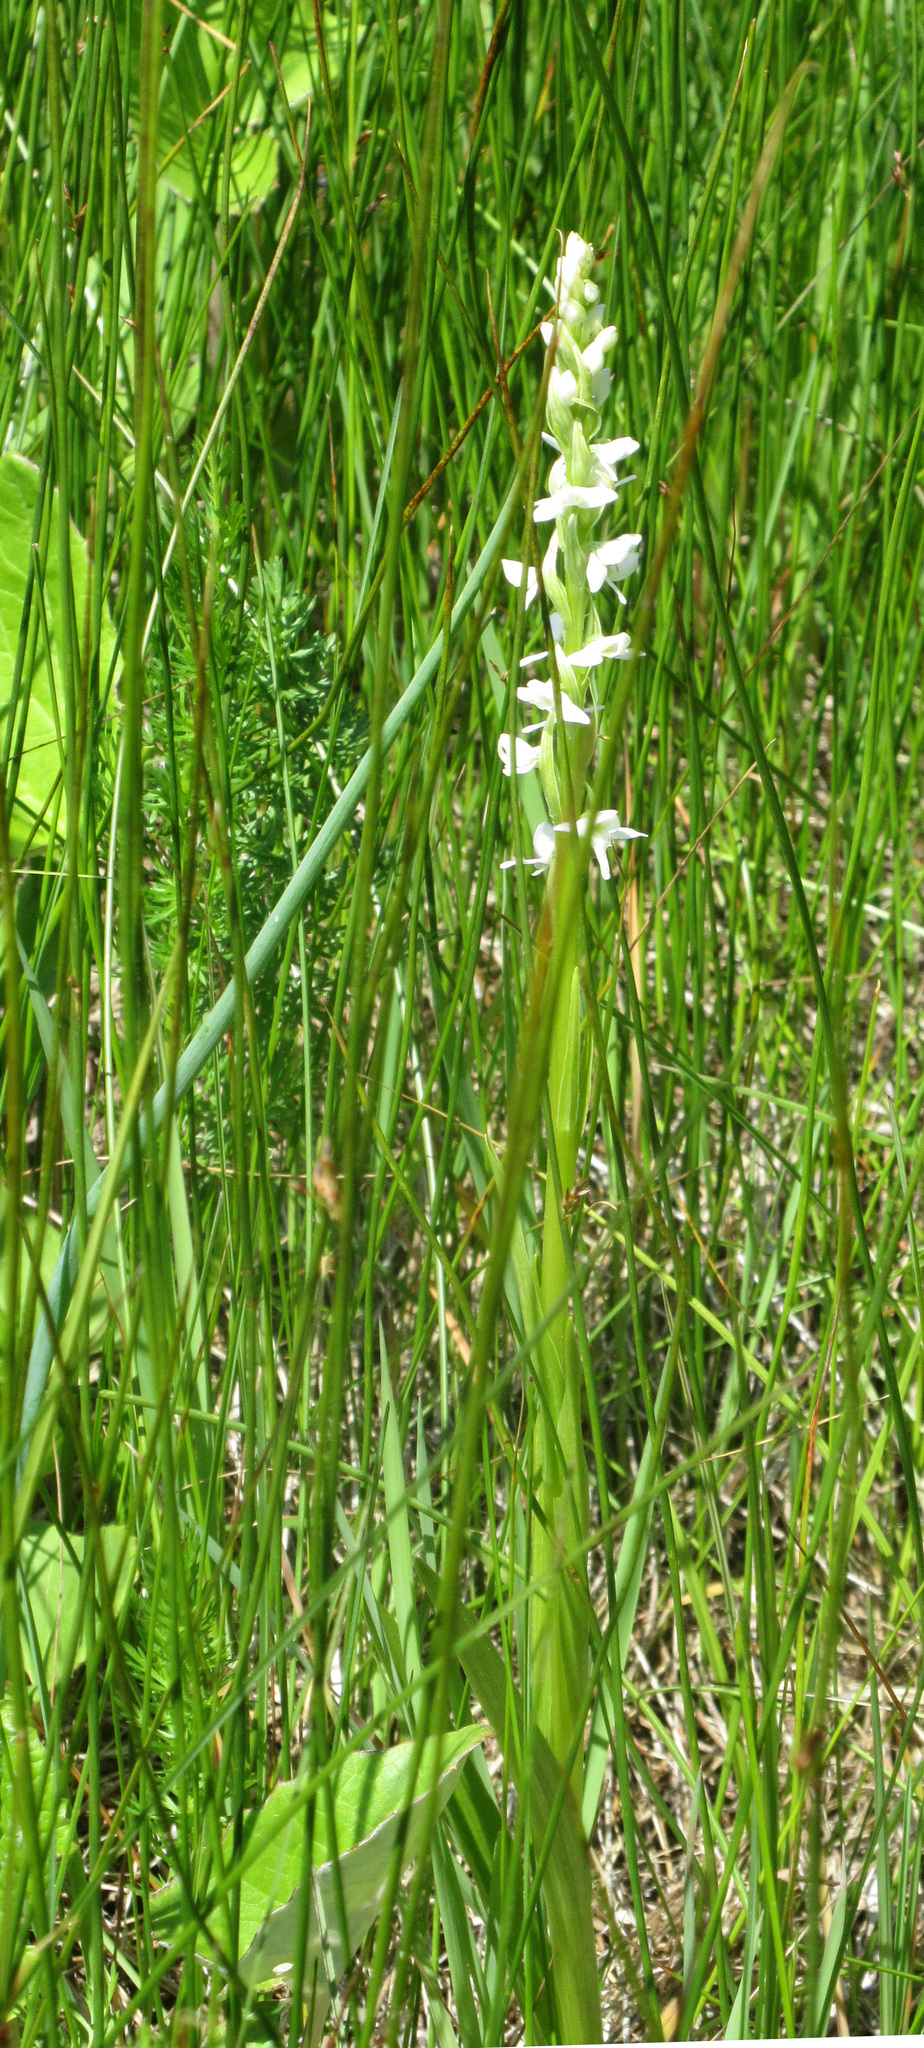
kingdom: Plantae
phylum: Tracheophyta
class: Liliopsida
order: Asparagales
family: Orchidaceae
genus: Platanthera
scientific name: Platanthera dilatata
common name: Bog candles
